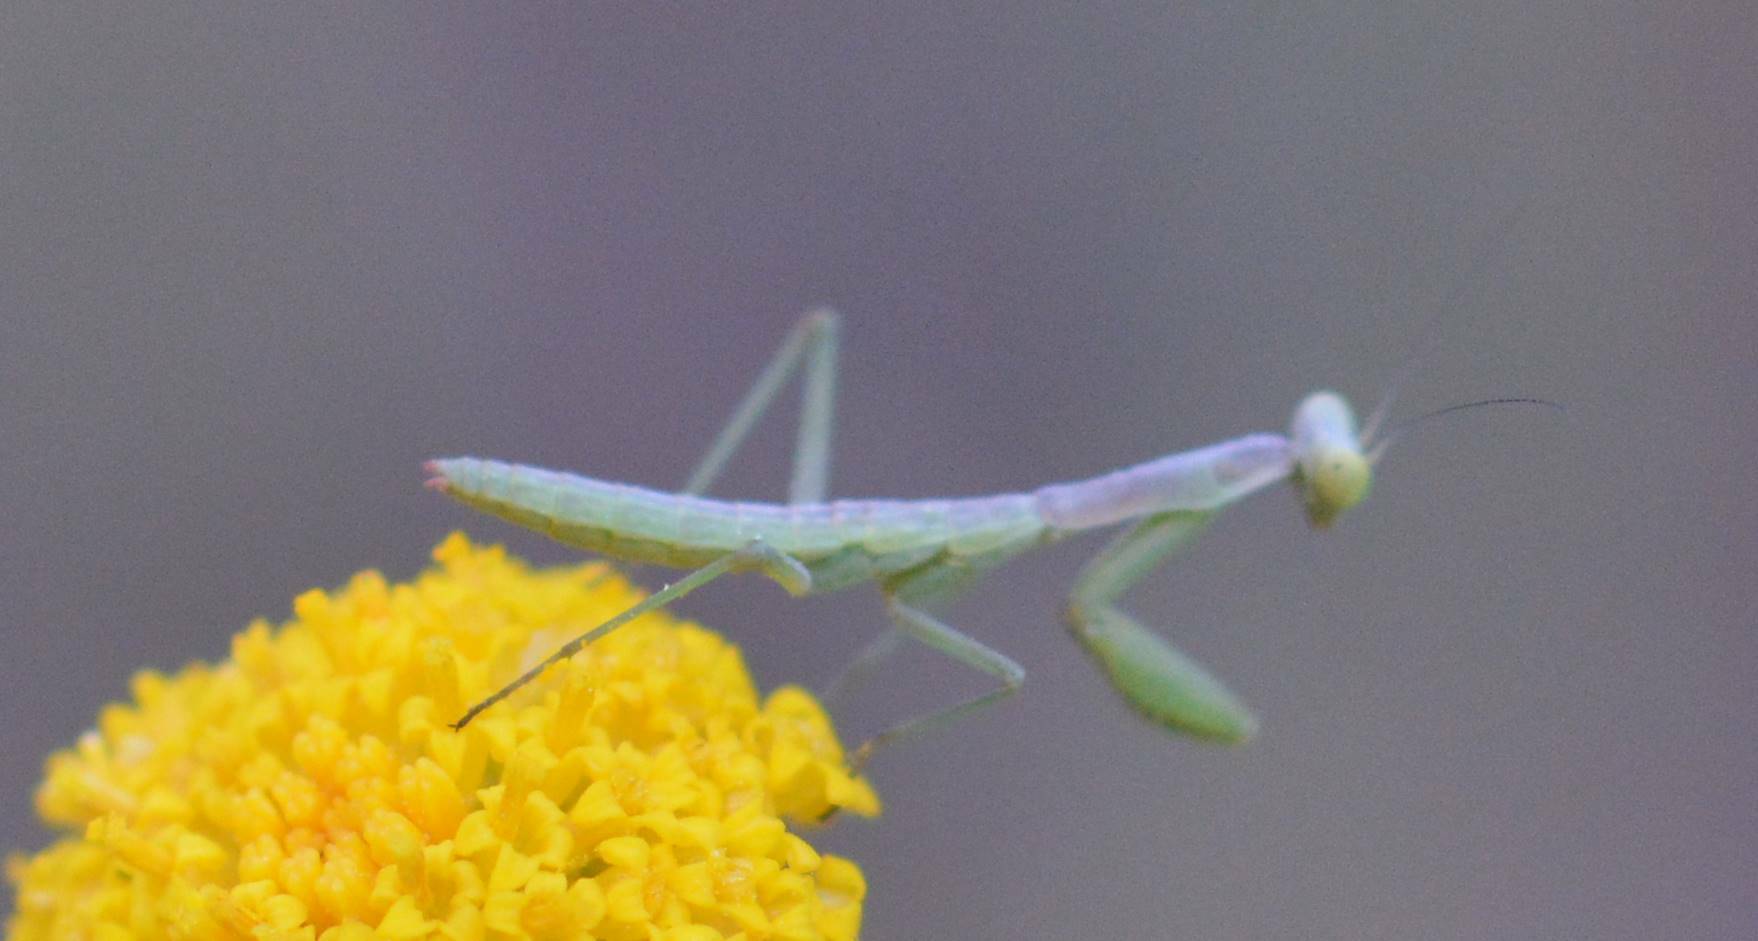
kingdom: Animalia
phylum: Arthropoda
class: Insecta
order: Mantodea
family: Eremiaphilidae
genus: Iris
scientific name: Iris oratoria
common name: Mediterranean mantis
